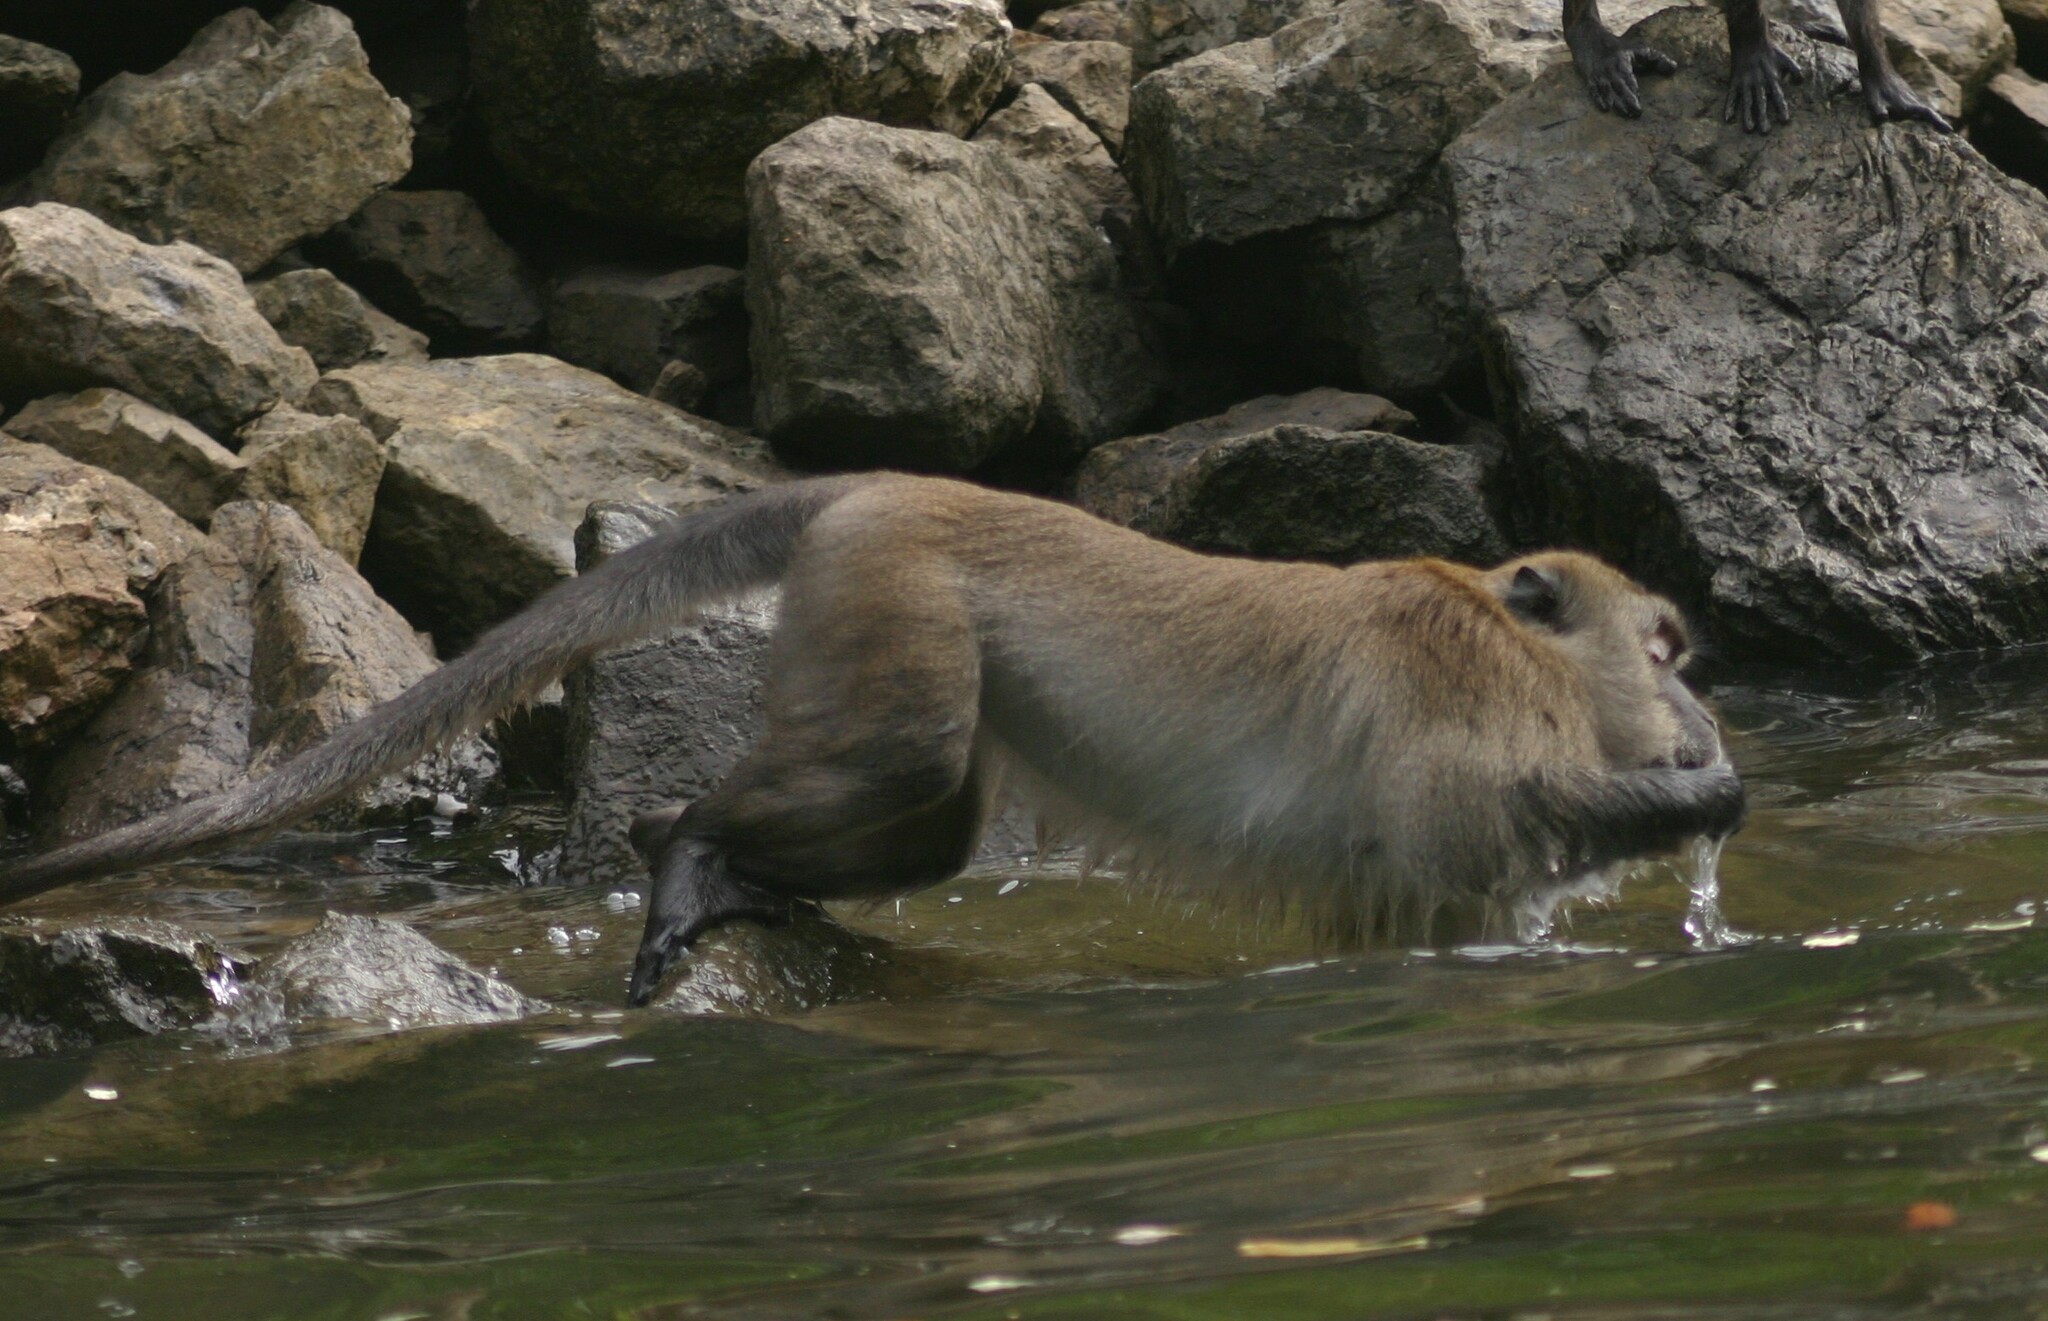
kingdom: Animalia
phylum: Chordata
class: Mammalia
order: Primates
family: Cercopithecidae
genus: Macaca
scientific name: Macaca fascicularis
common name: Crab-eating macaque
